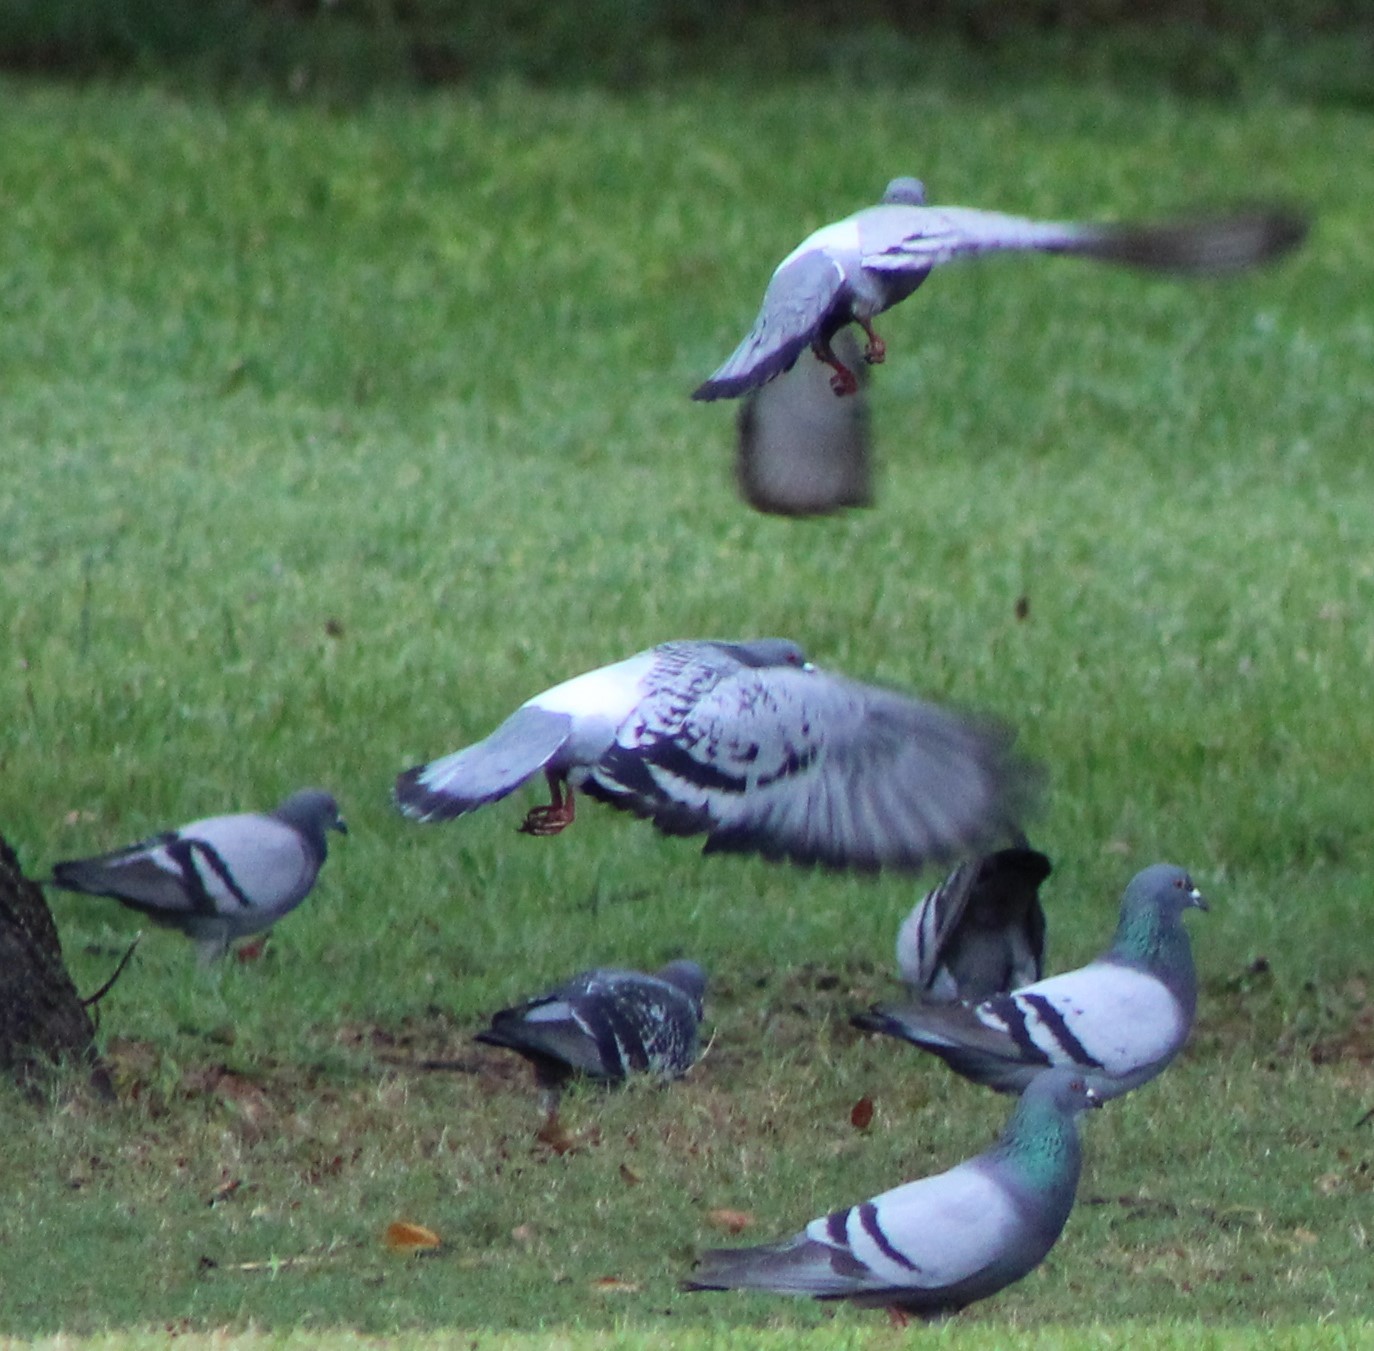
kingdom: Animalia
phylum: Chordata
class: Aves
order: Columbiformes
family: Columbidae
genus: Columba
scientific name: Columba livia
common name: Rock pigeon
